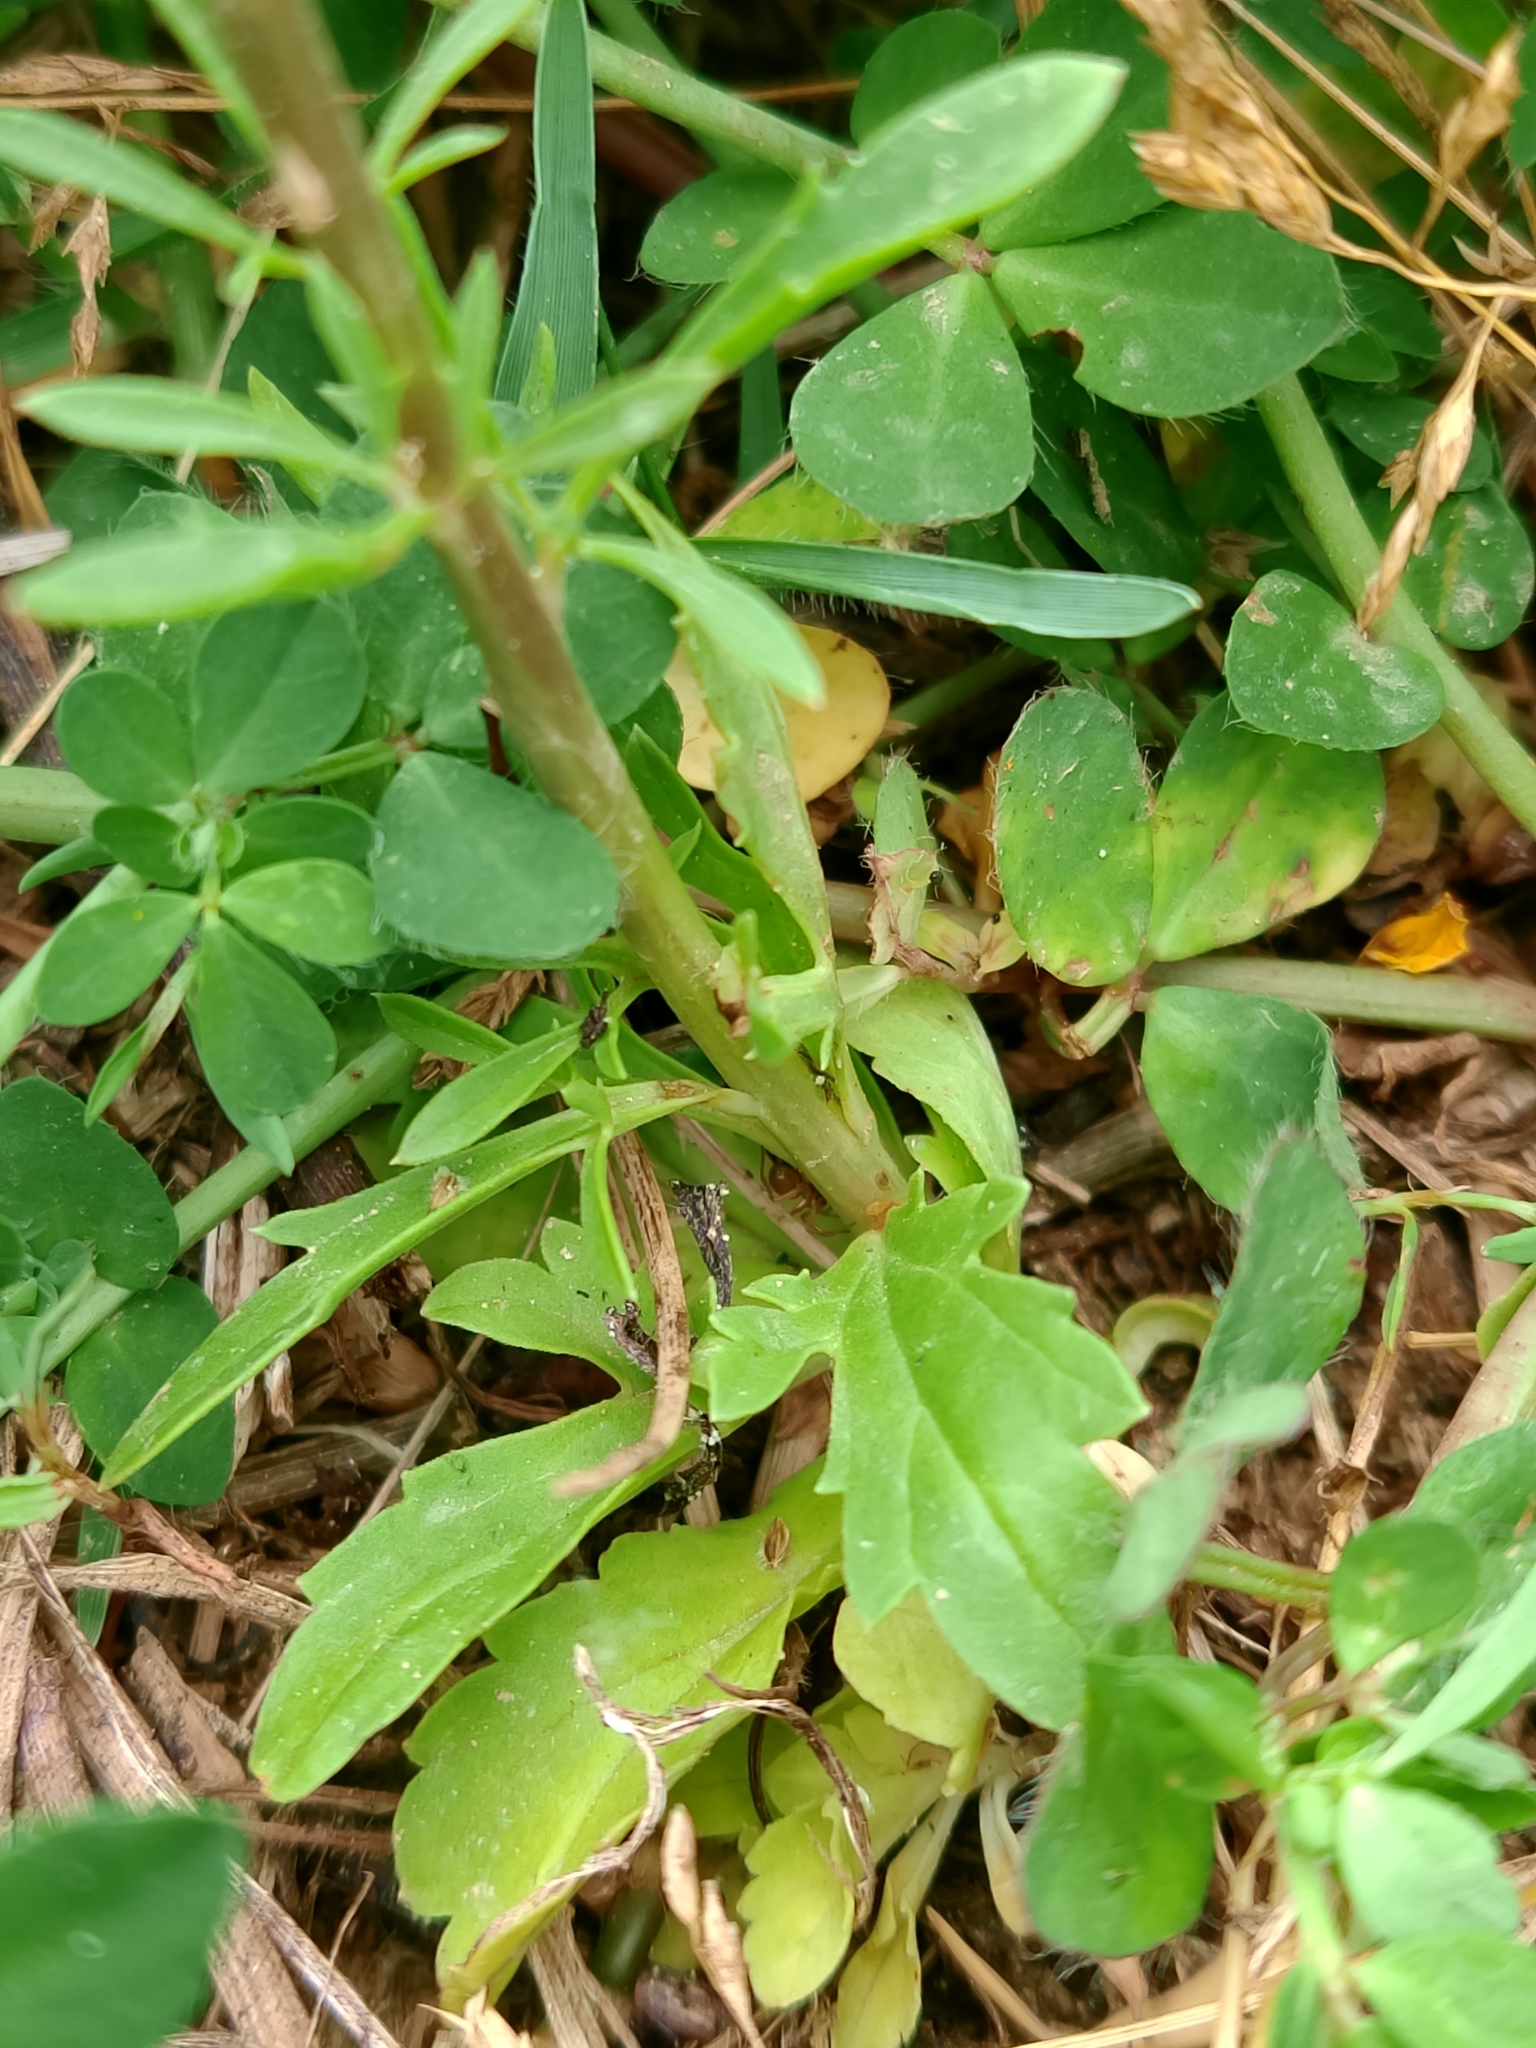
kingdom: Plantae
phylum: Tracheophyta
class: Magnoliopsida
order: Lamiales
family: Plantaginaceae
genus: Anarrhinum
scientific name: Anarrhinum bellidifolium
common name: Daisy-leaved toadflax
